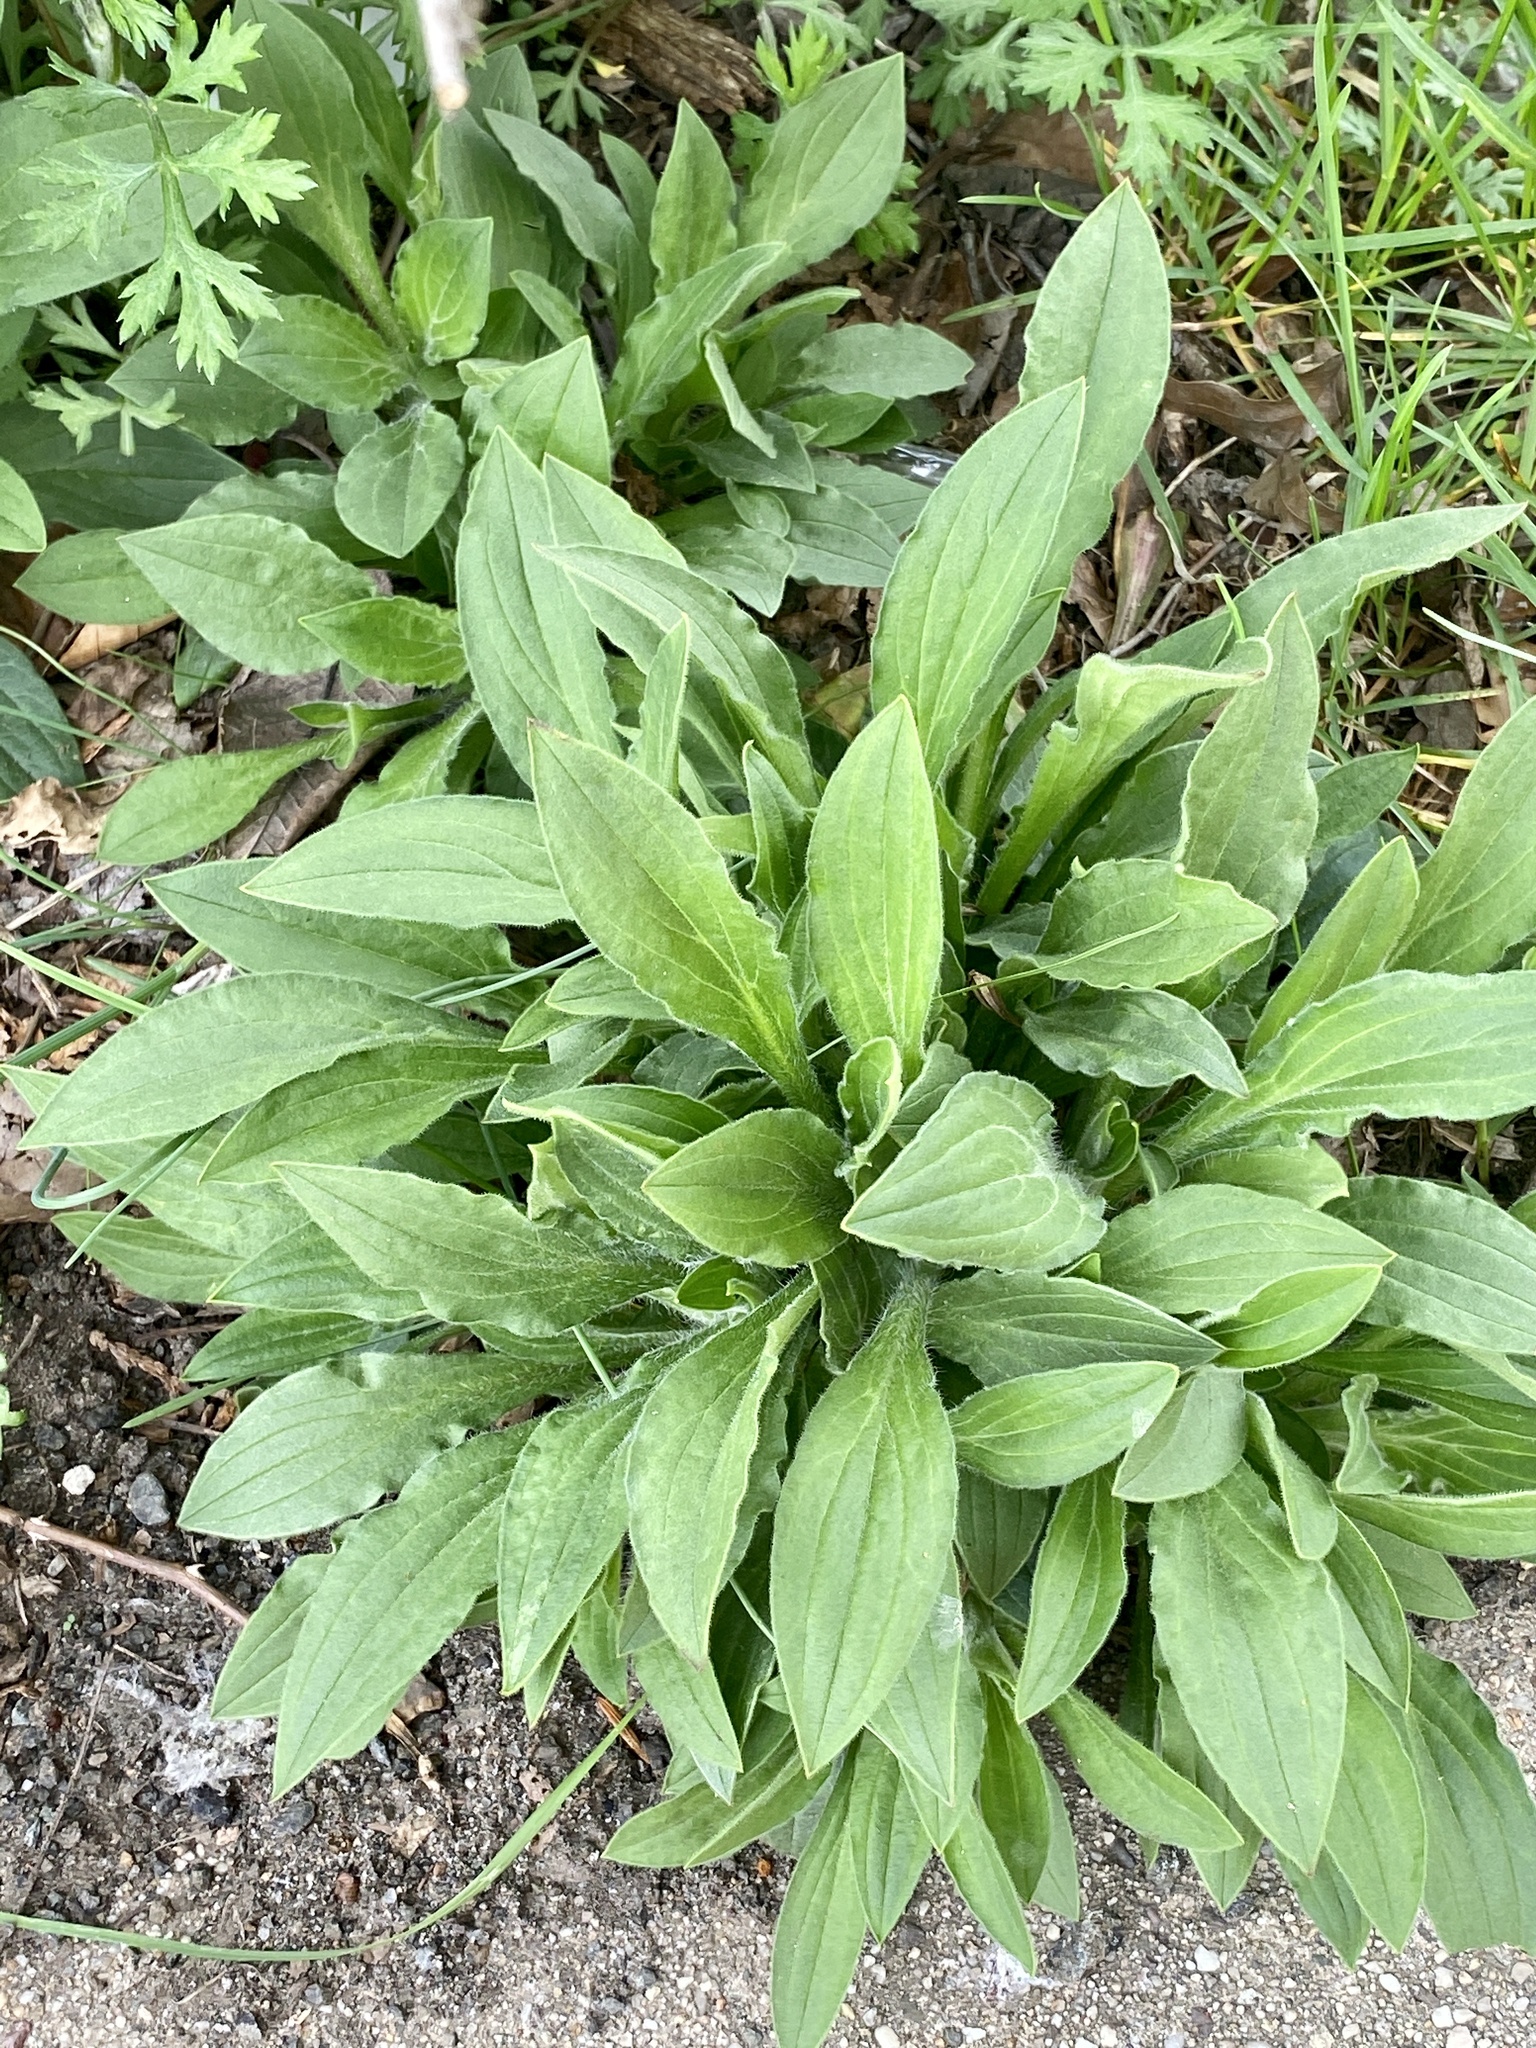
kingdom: Plantae
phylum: Tracheophyta
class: Magnoliopsida
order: Caryophyllales
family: Caryophyllaceae
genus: Silene
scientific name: Silene latifolia
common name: White campion
